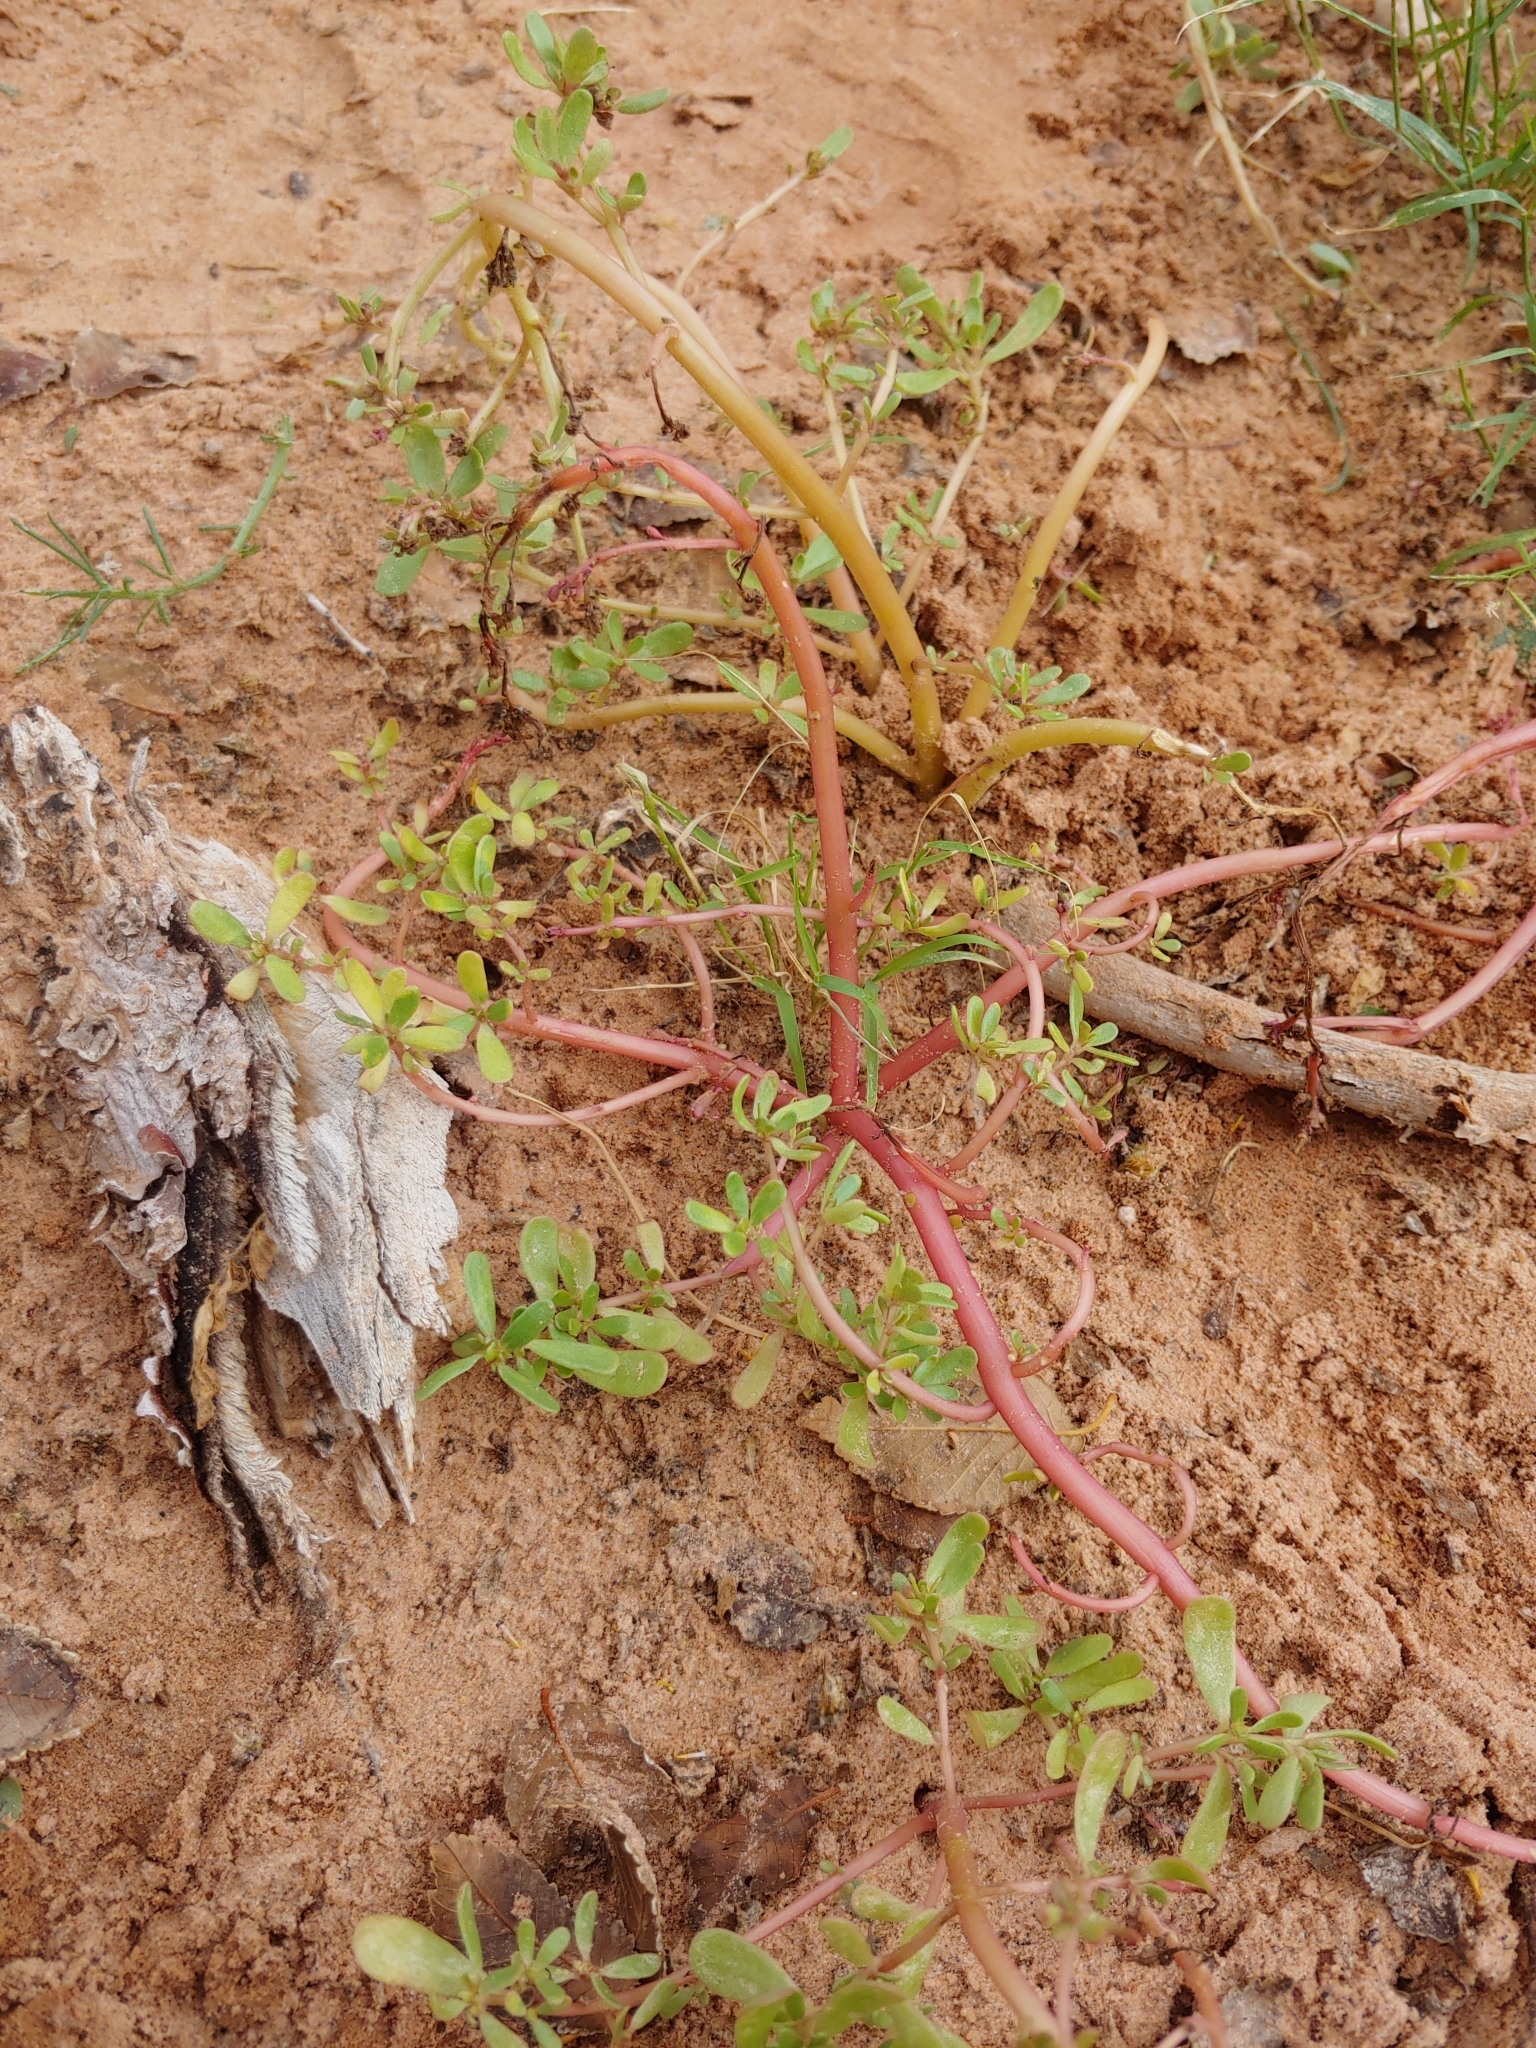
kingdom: Plantae
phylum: Tracheophyta
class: Magnoliopsida
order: Caryophyllales
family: Portulacaceae
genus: Portulaca
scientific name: Portulaca oleracea
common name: Common purslane
